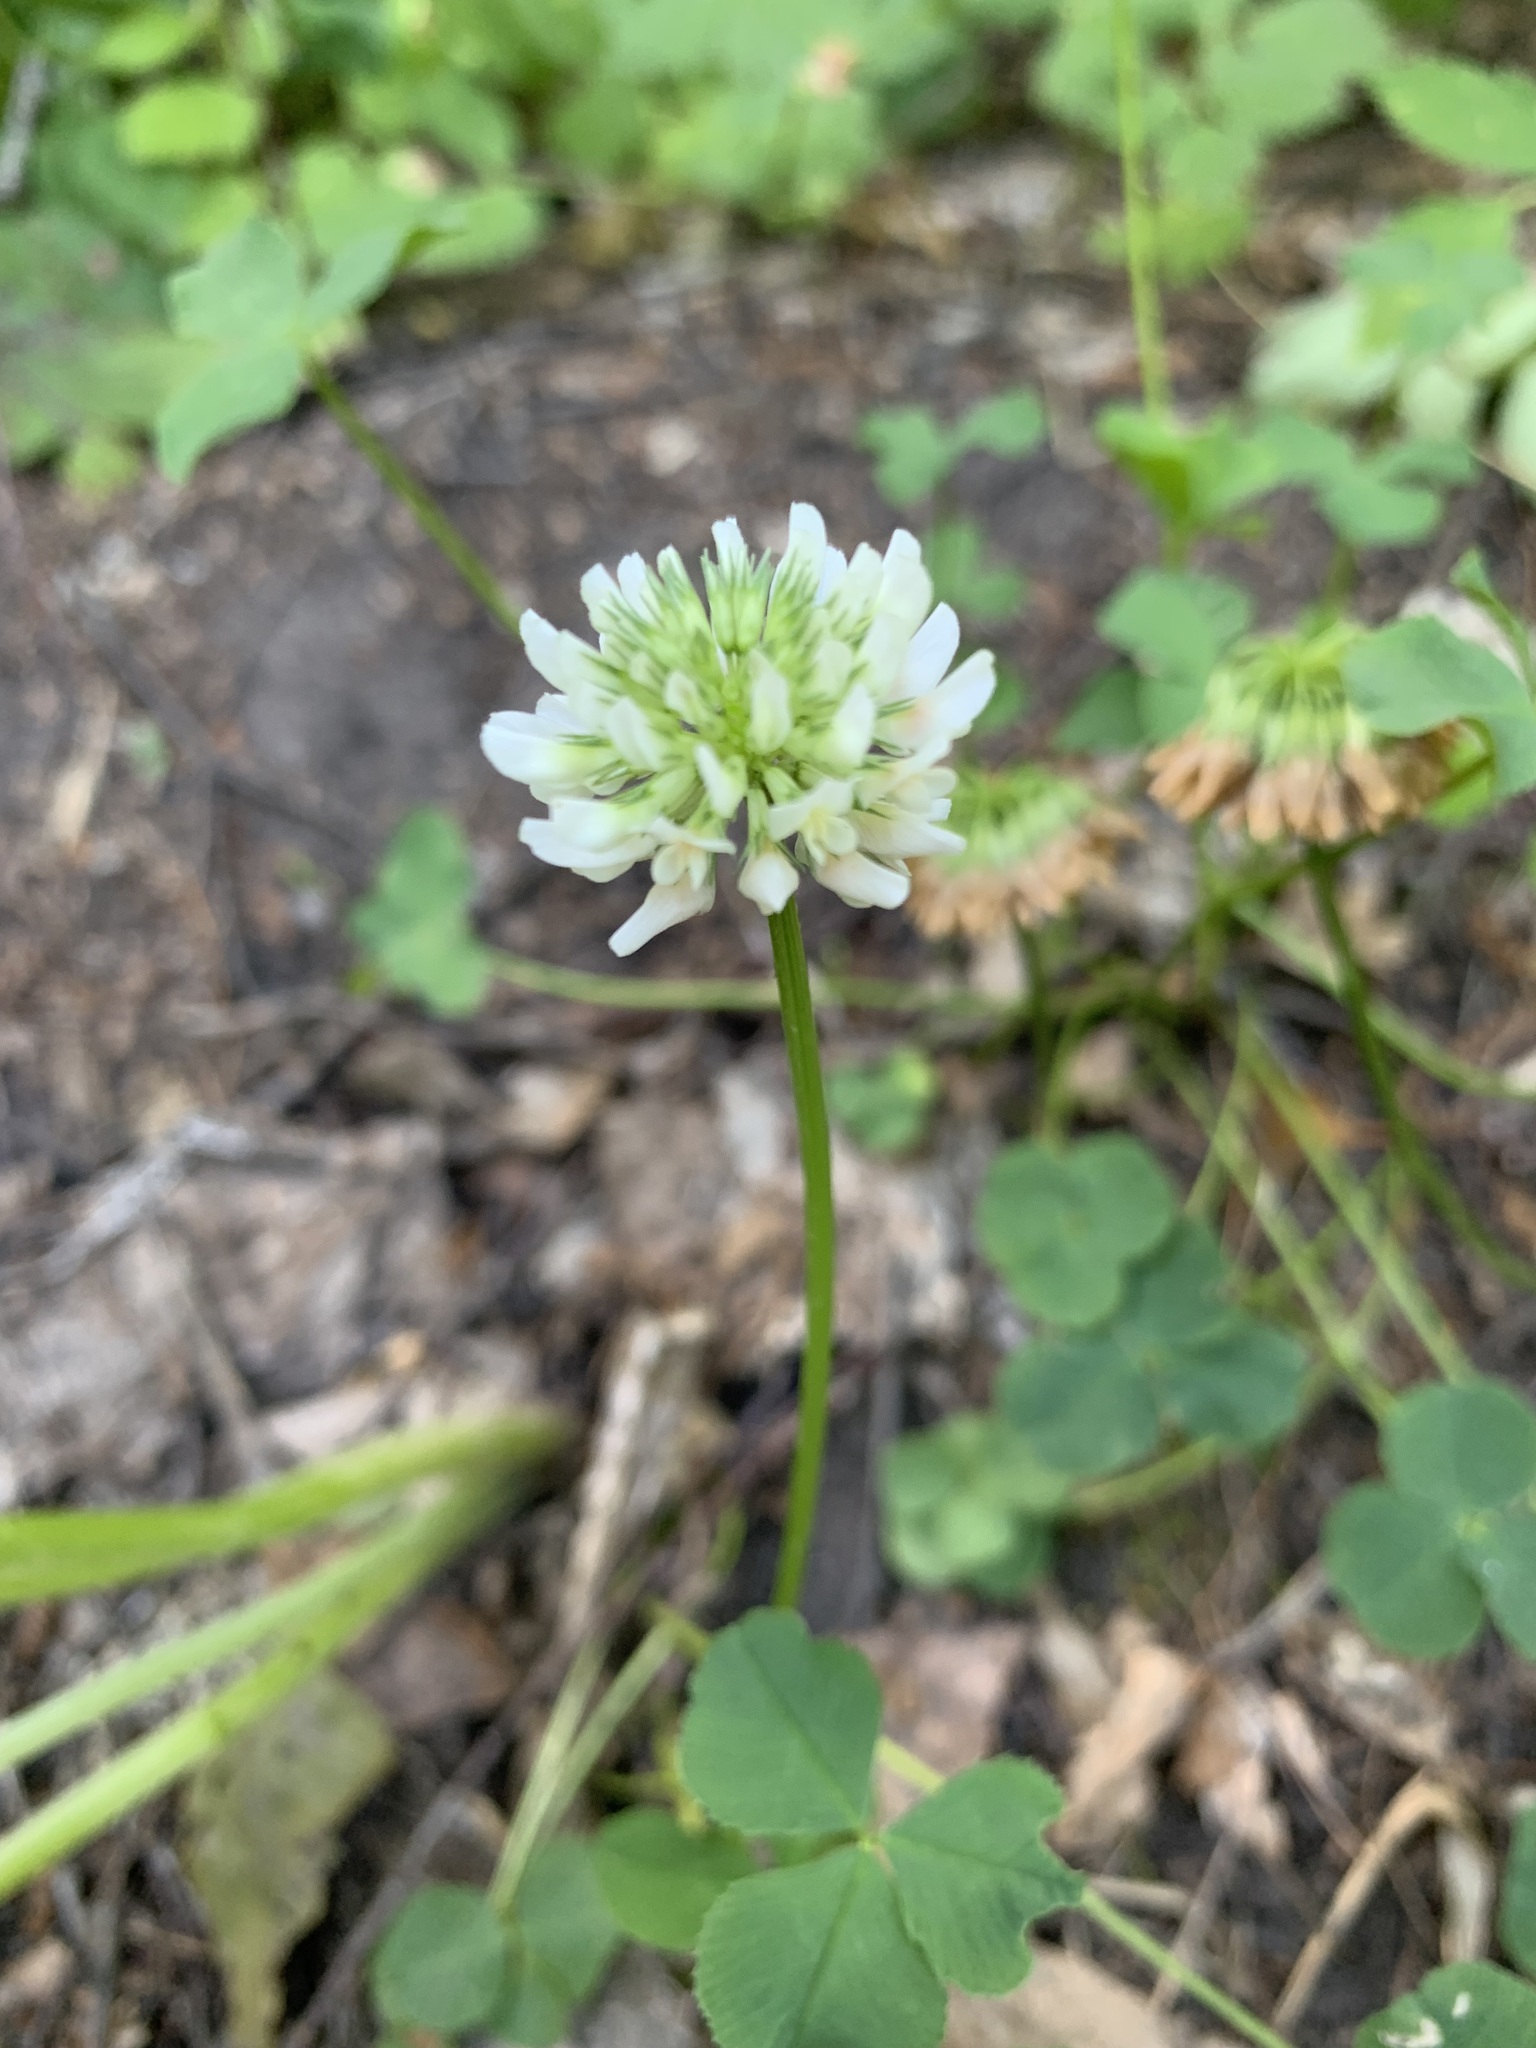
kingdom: Plantae
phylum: Tracheophyta
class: Magnoliopsida
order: Fabales
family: Fabaceae
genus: Trifolium
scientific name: Trifolium repens
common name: White clover
